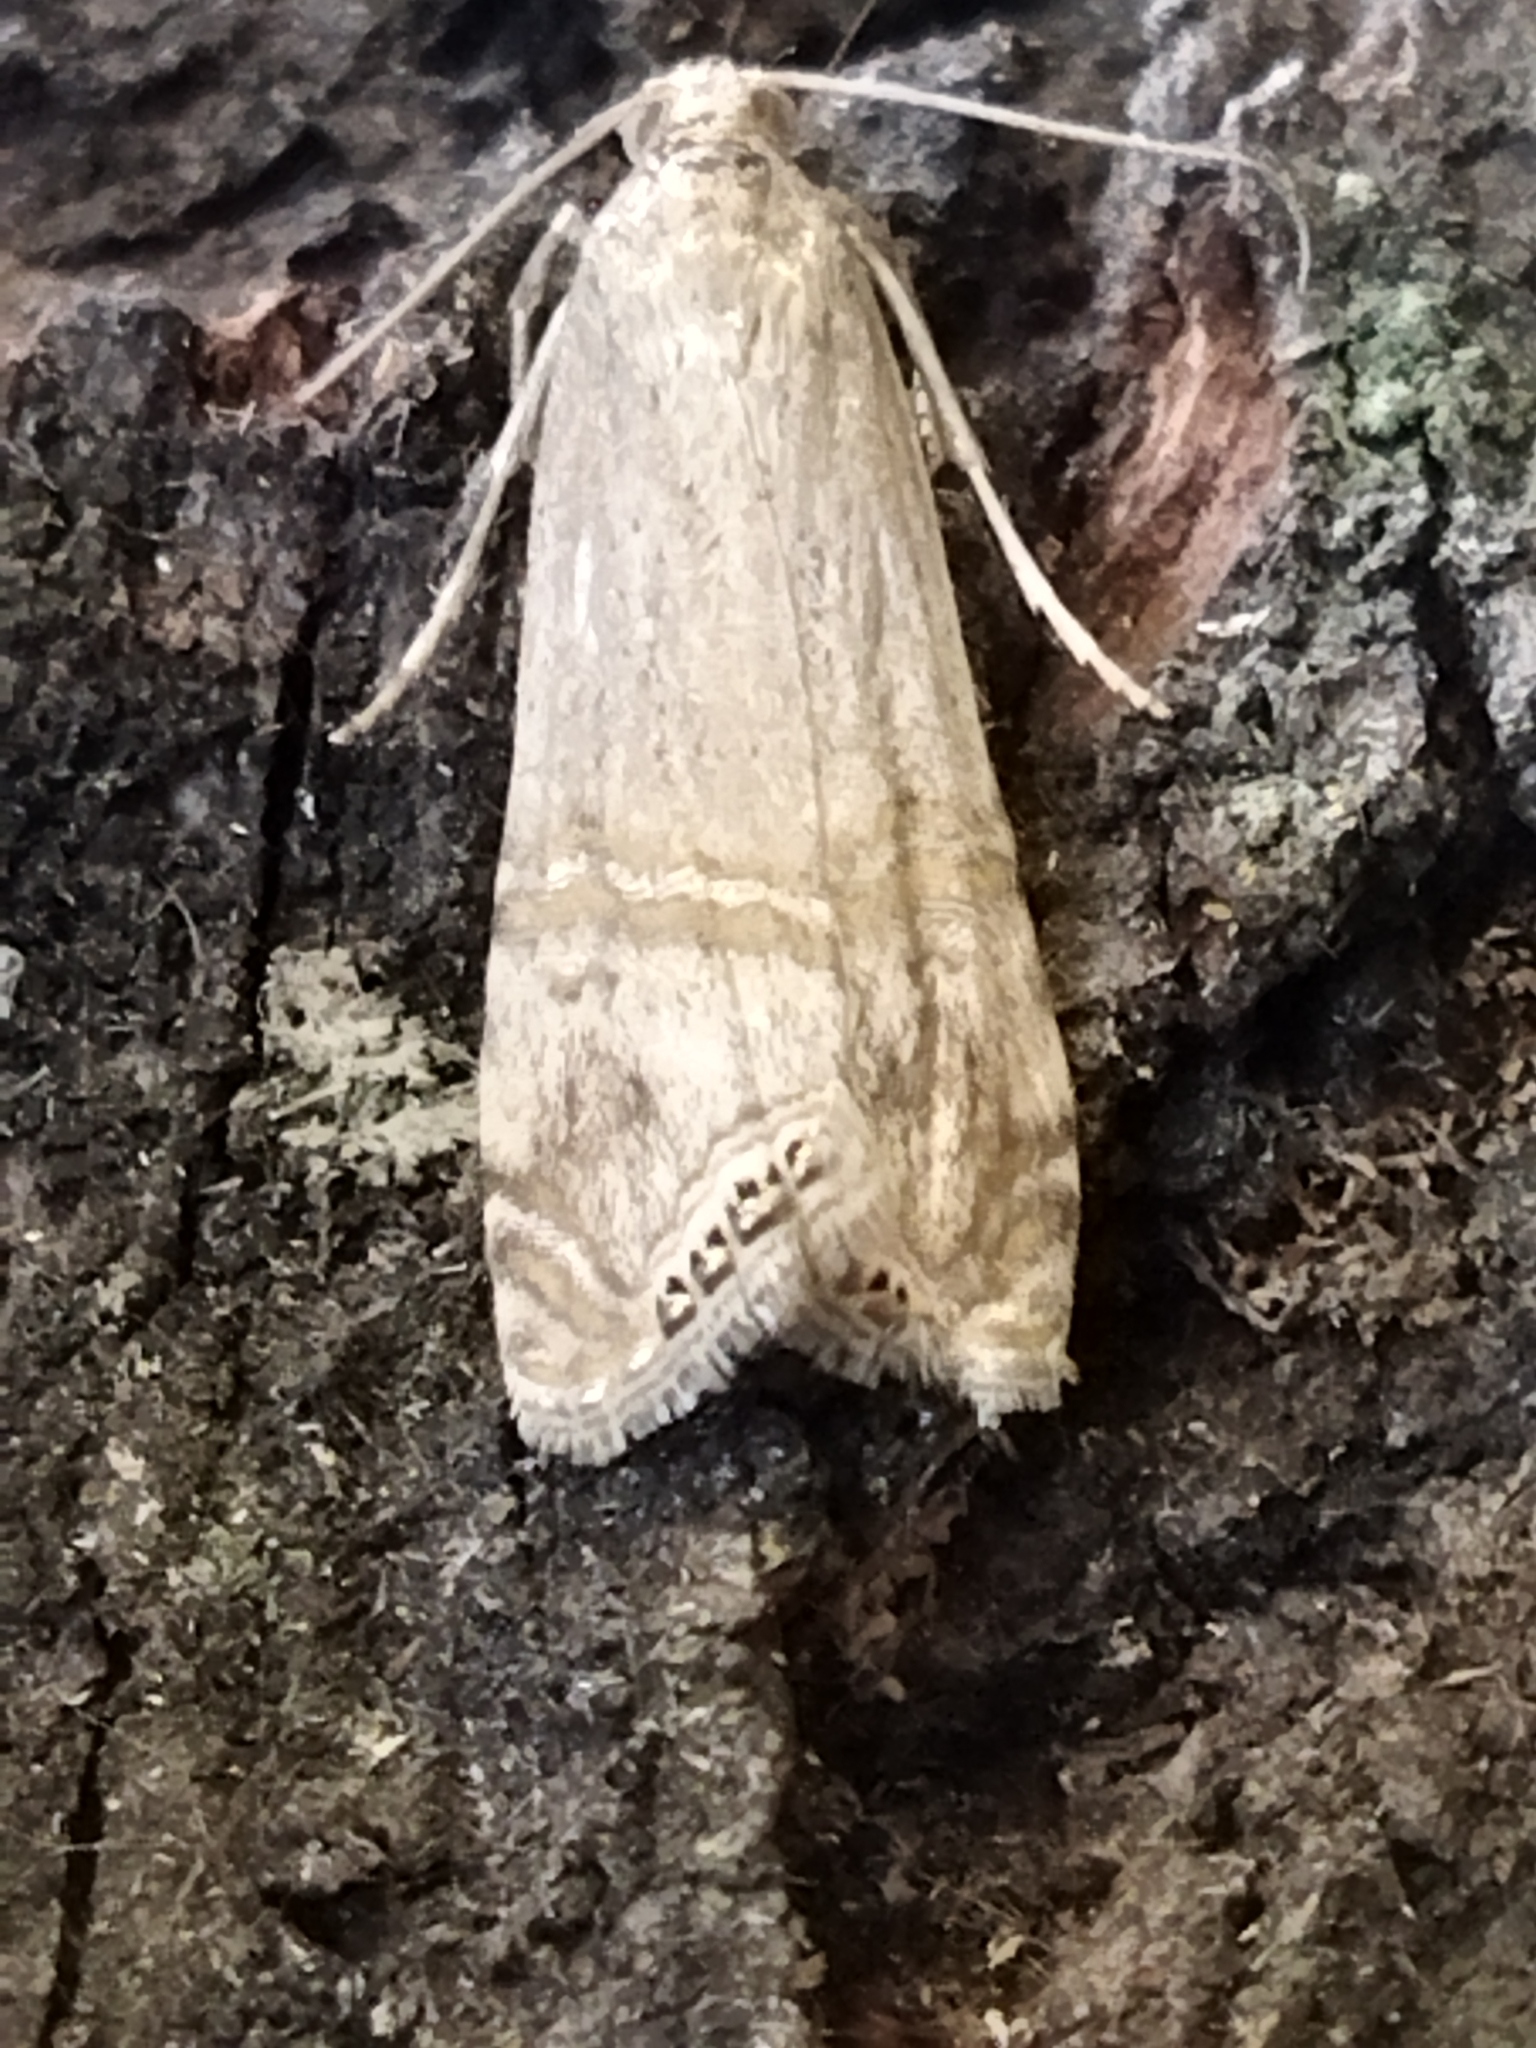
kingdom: Animalia
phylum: Arthropoda
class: Insecta
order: Lepidoptera
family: Crambidae
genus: Euchromius
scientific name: Euchromius ocellea
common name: Necklace veneer moth
